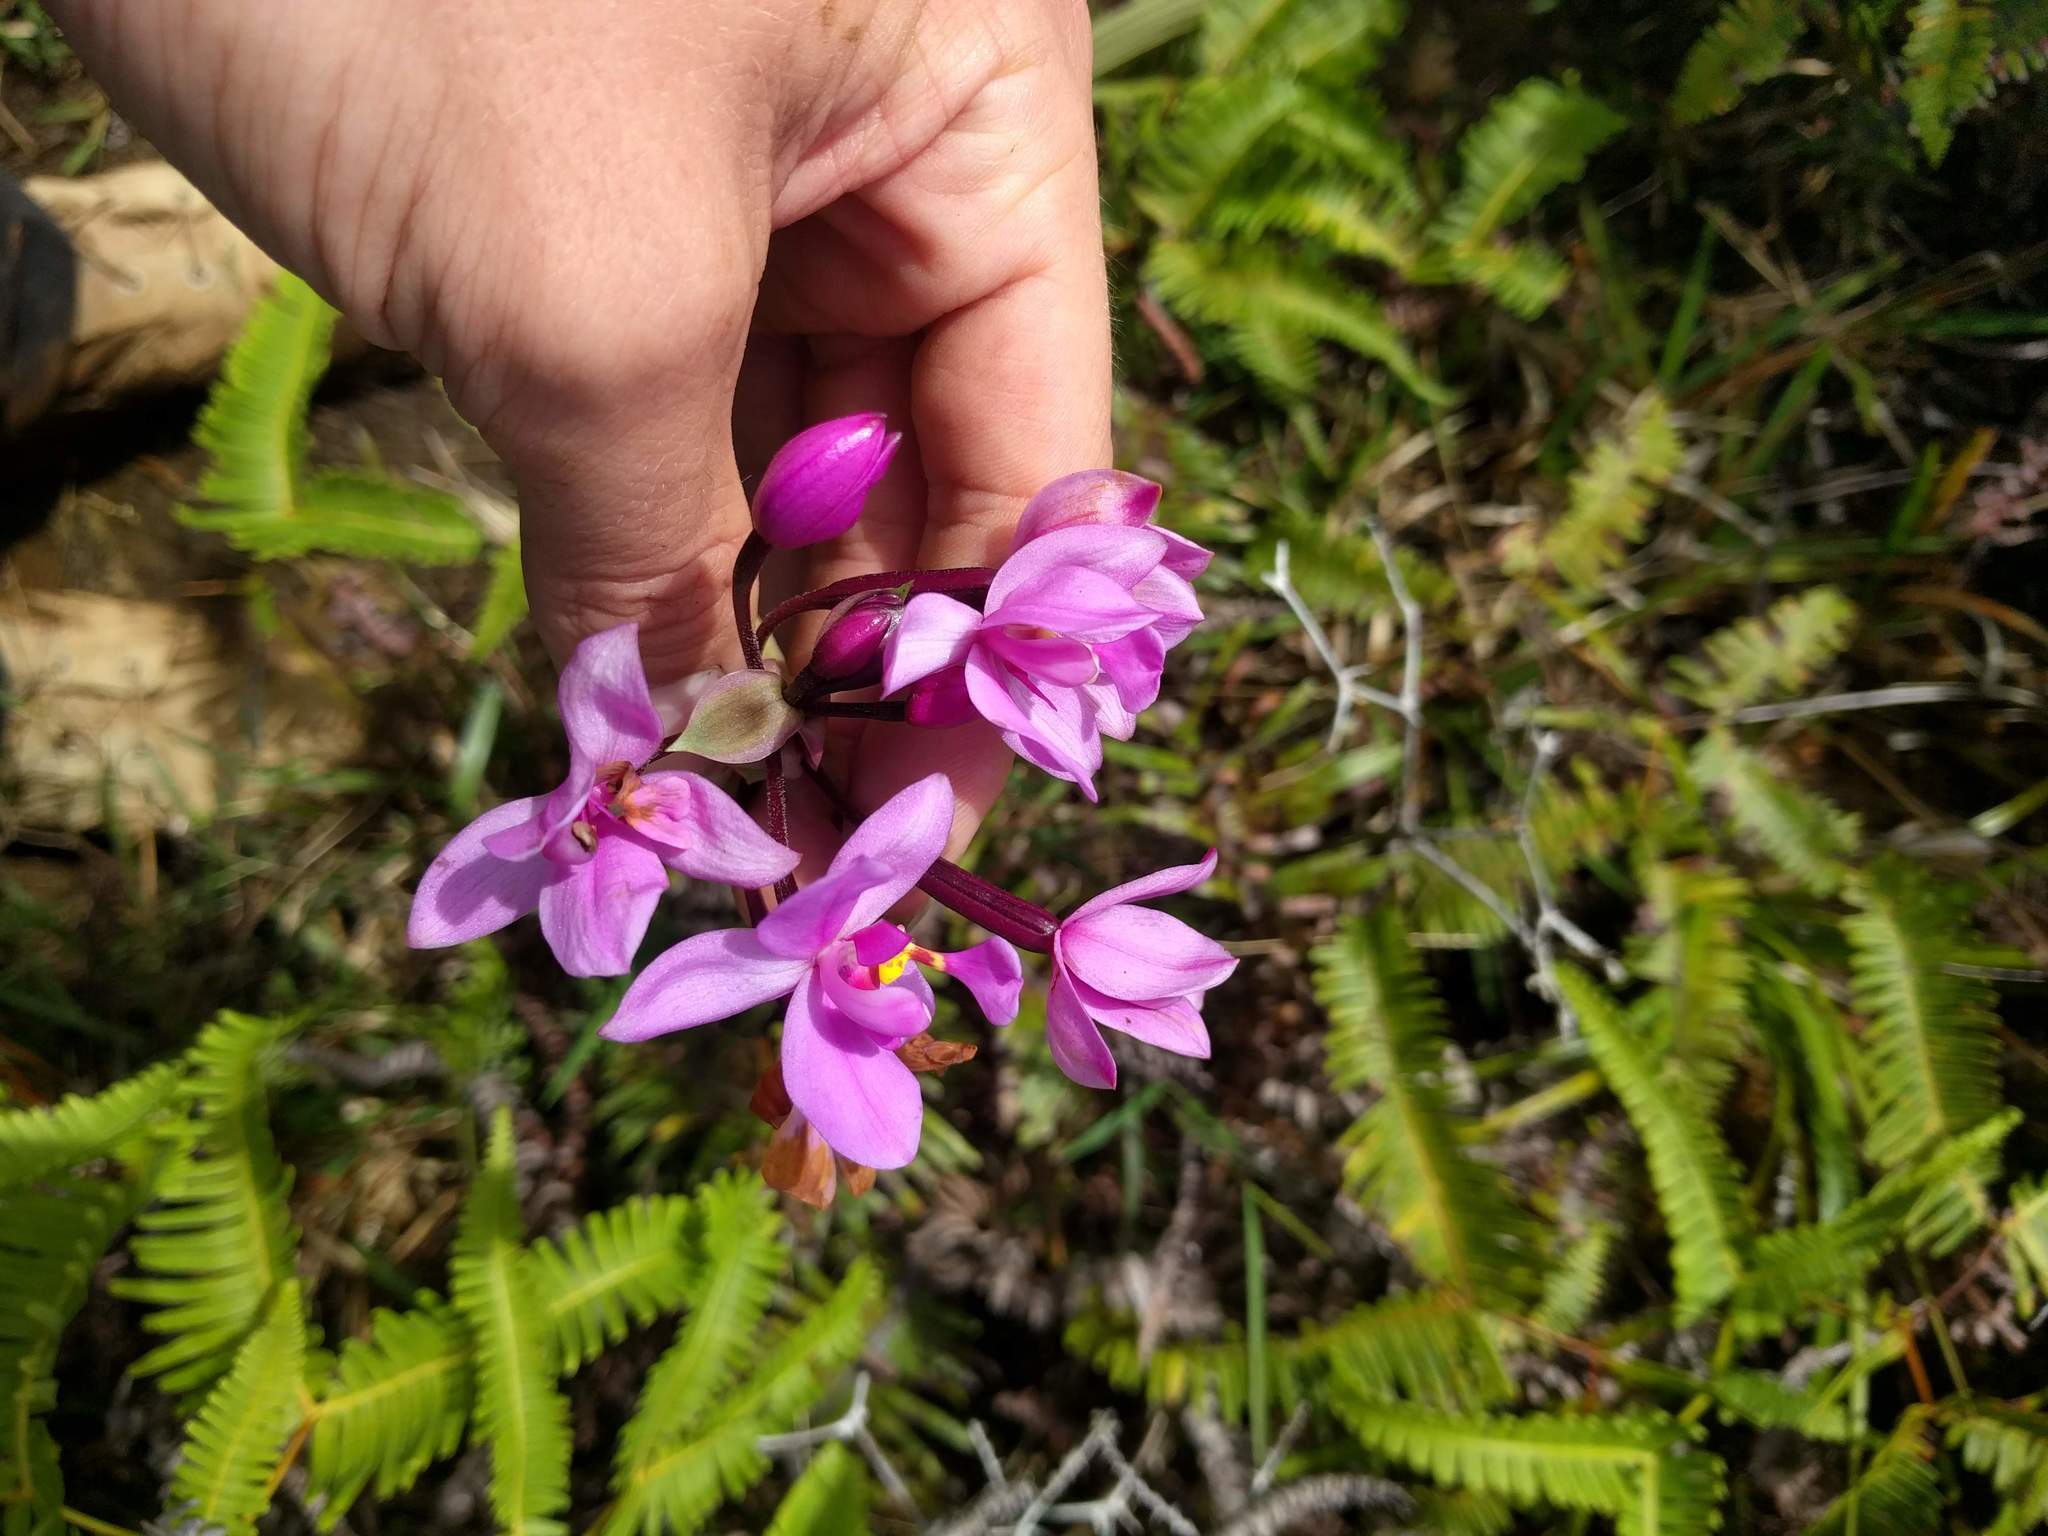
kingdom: Plantae
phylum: Tracheophyta
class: Liliopsida
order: Asparagales
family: Orchidaceae
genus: Spathoglottis
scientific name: Spathoglottis plicata
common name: Philippine ground orchid
